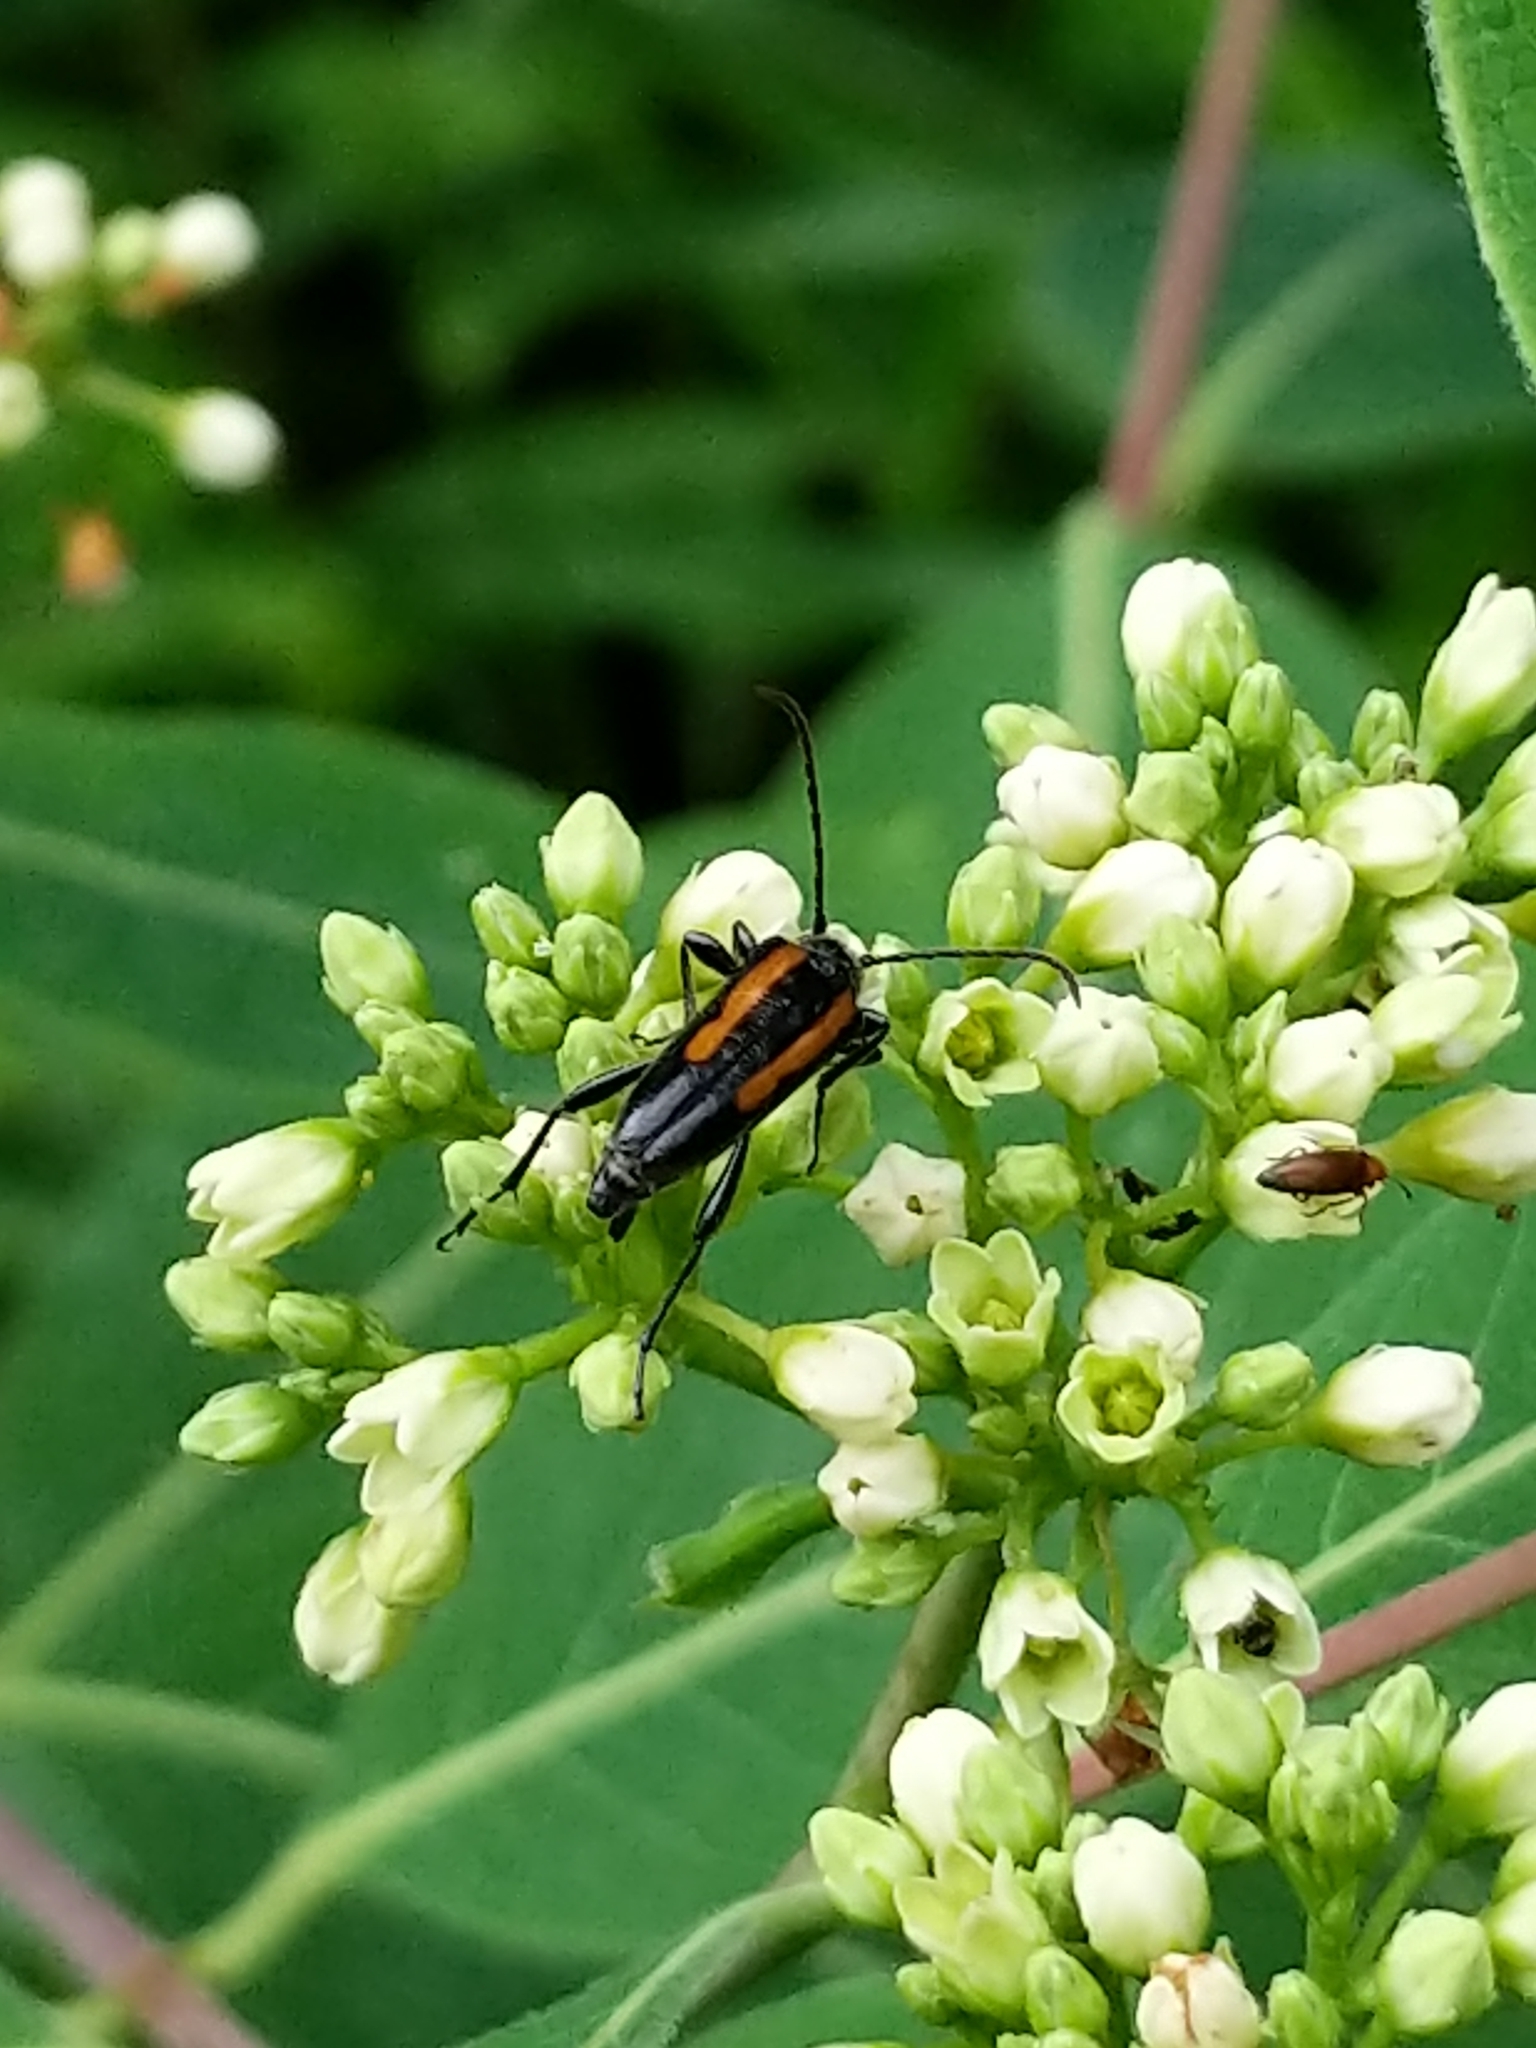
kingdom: Animalia
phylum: Arthropoda
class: Insecta
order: Coleoptera
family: Cerambycidae
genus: Strangalepta
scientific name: Strangalepta abbreviata
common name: Strangalepta flower longhorn beetle
